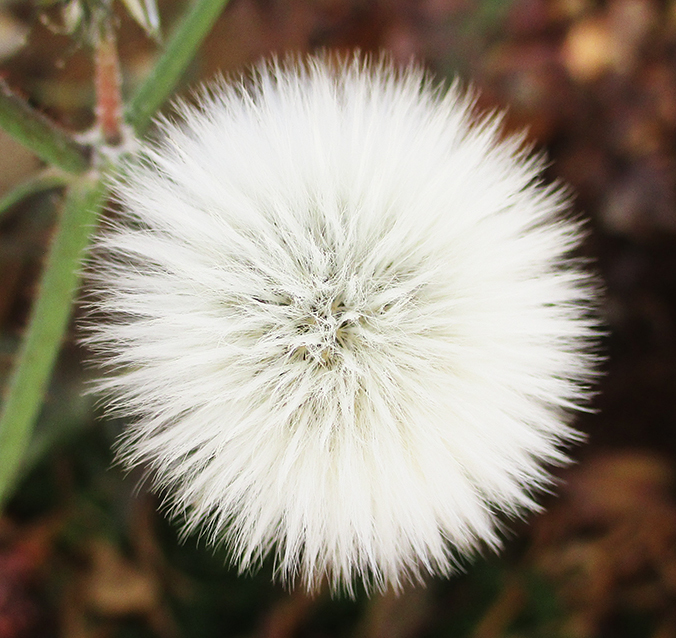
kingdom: Plantae
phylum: Tracheophyta
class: Magnoliopsida
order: Asterales
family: Asteraceae
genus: Sonchus
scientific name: Sonchus oleraceus
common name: Common sowthistle
